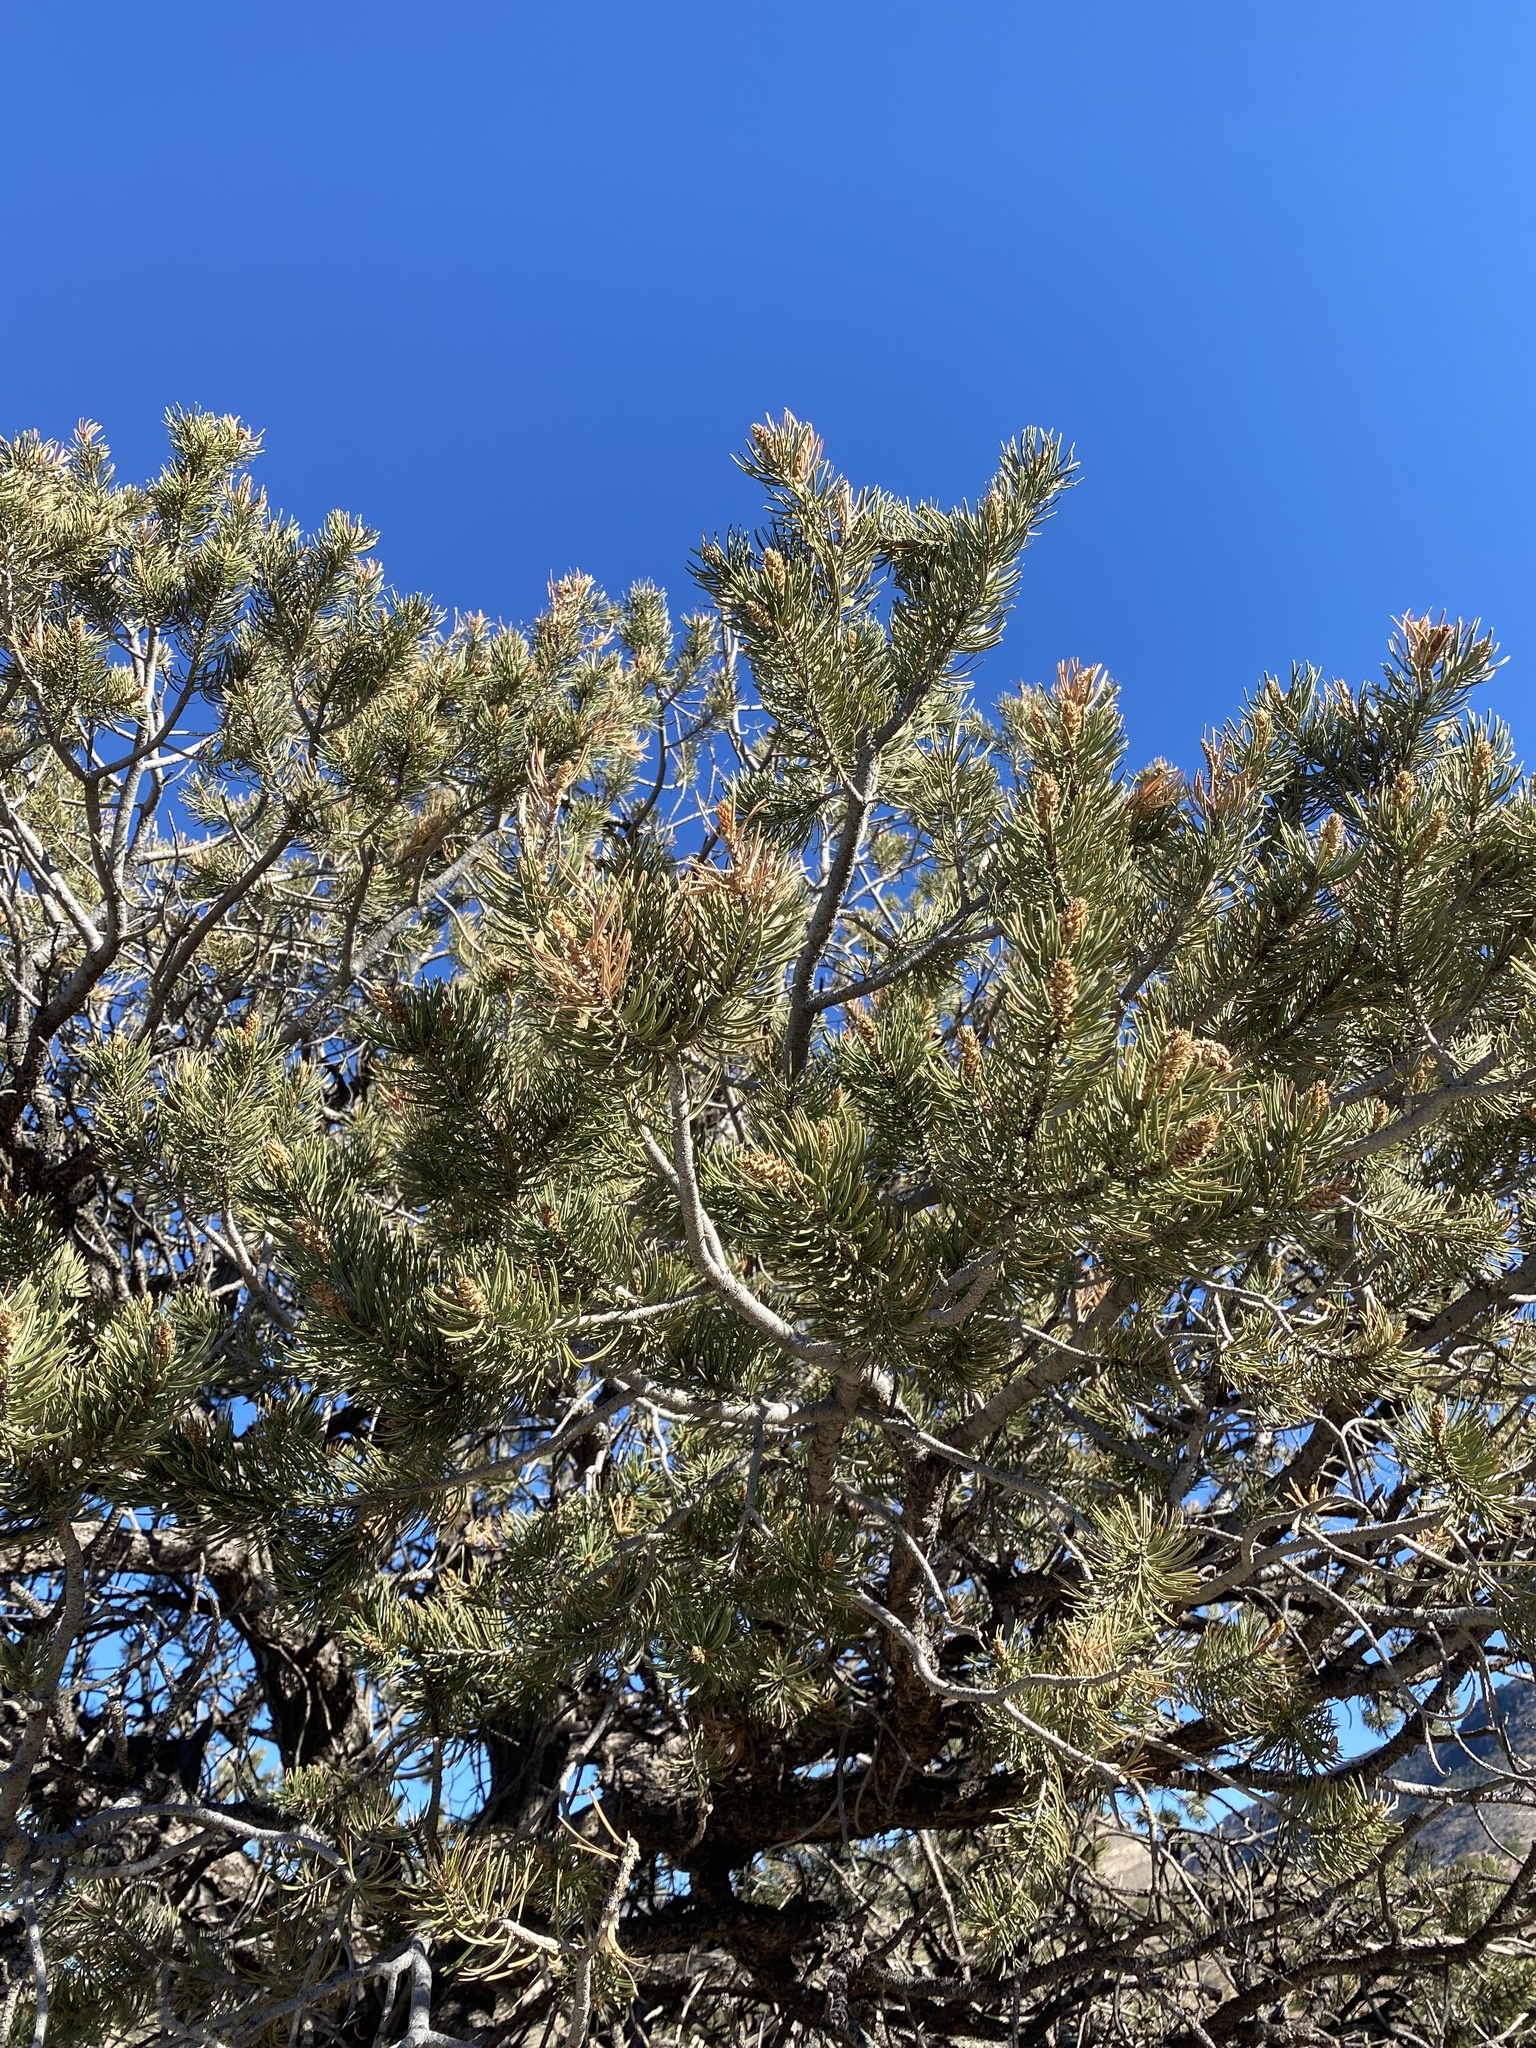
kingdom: Plantae
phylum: Tracheophyta
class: Pinopsida
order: Pinales
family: Pinaceae
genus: Pinus
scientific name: Pinus edulis
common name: Colorado pinyon
